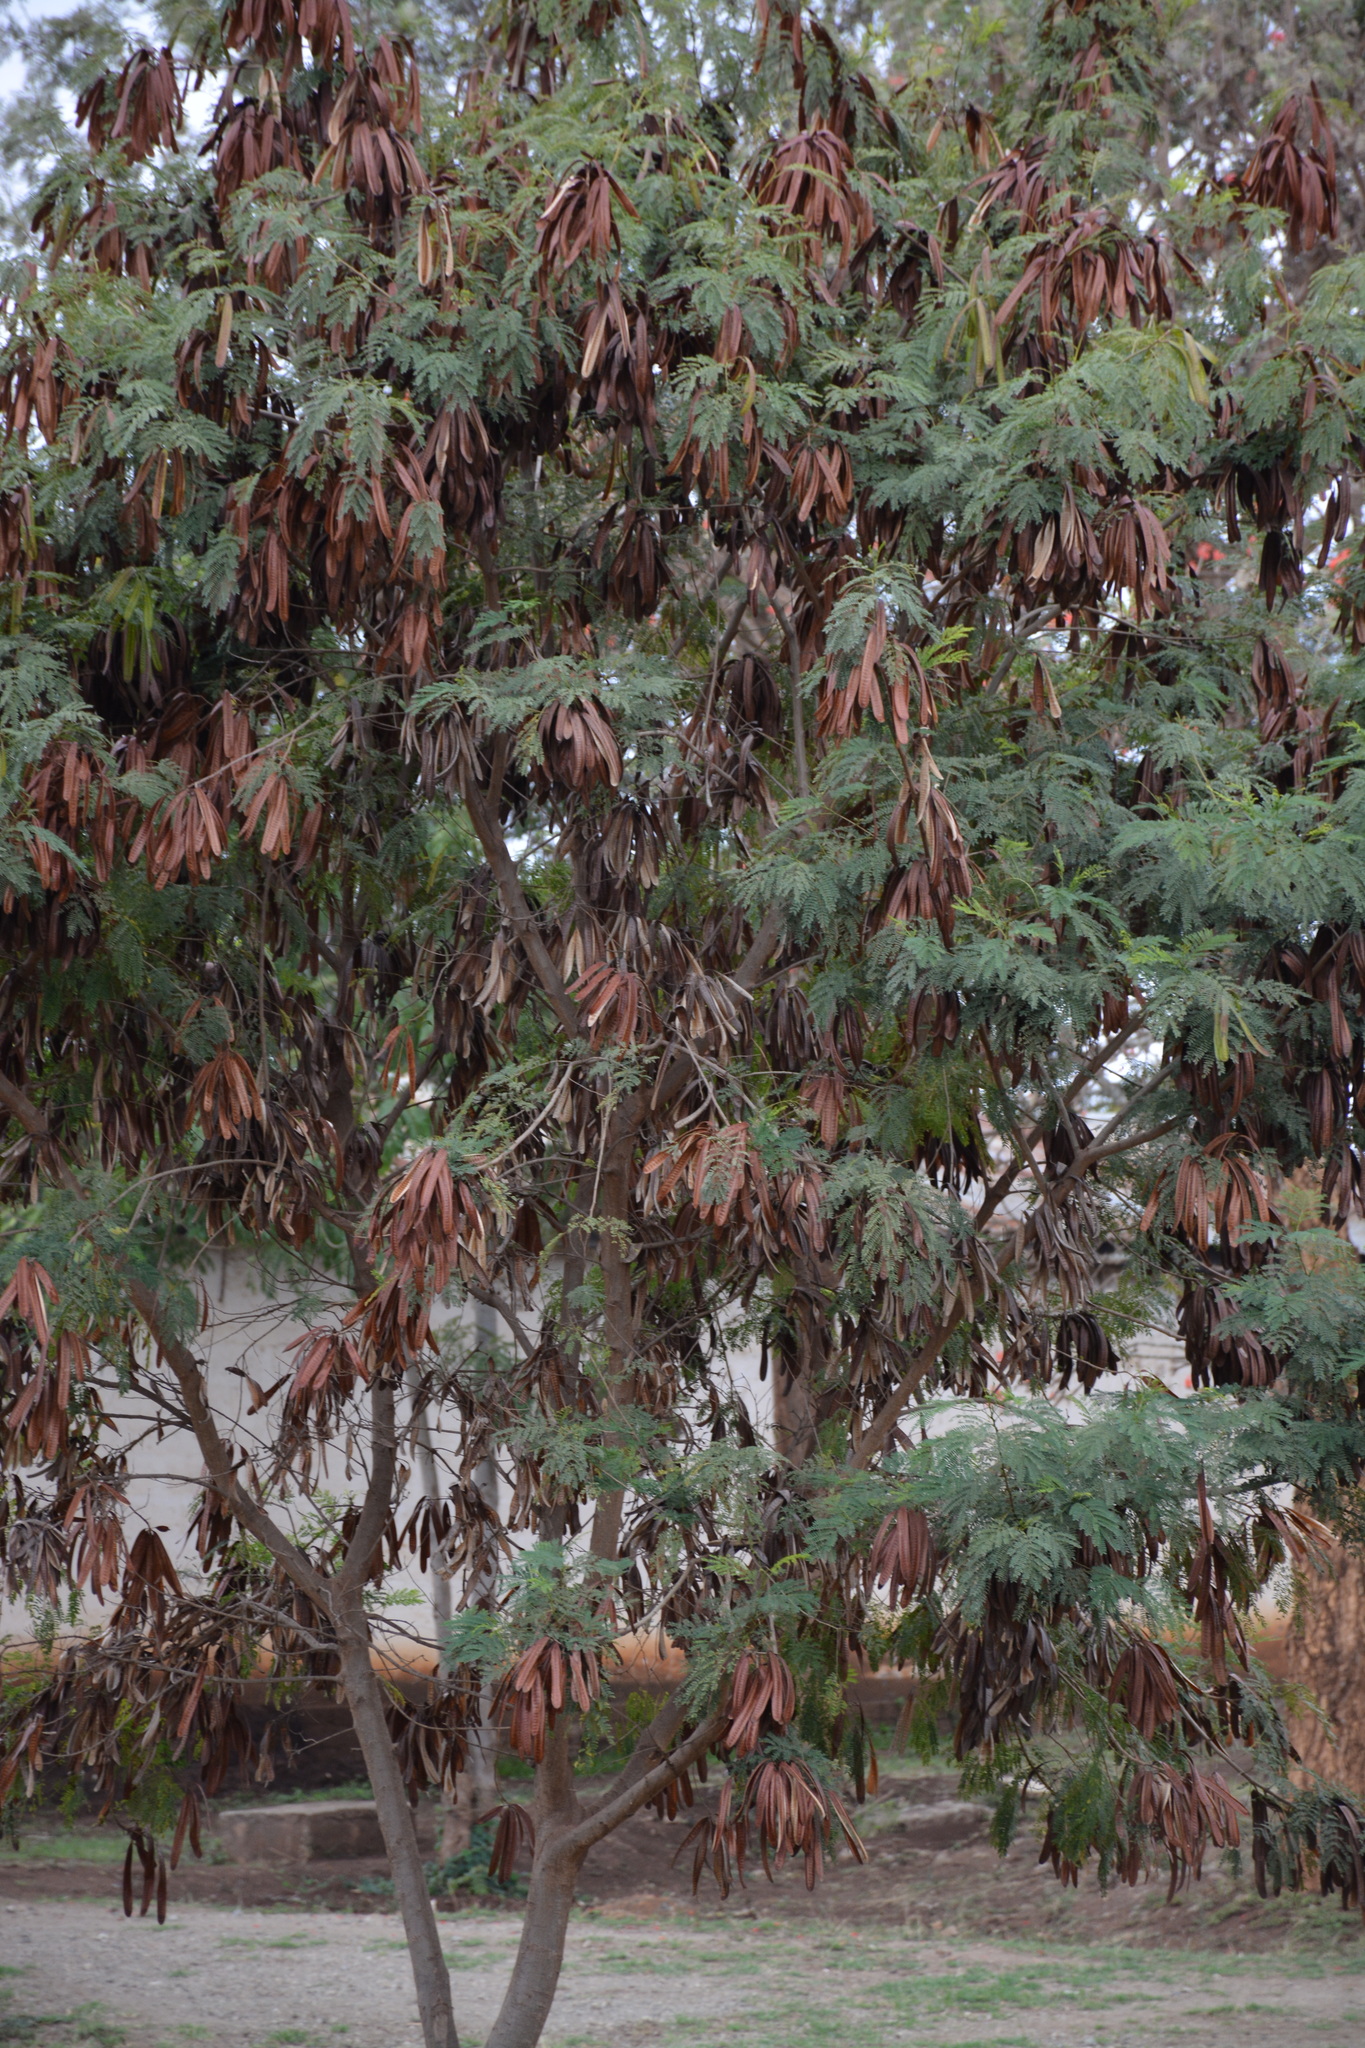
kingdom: Plantae
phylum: Tracheophyta
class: Magnoliopsida
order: Fabales
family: Fabaceae
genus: Leucaena
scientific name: Leucaena leucocephala
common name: White leadtree
